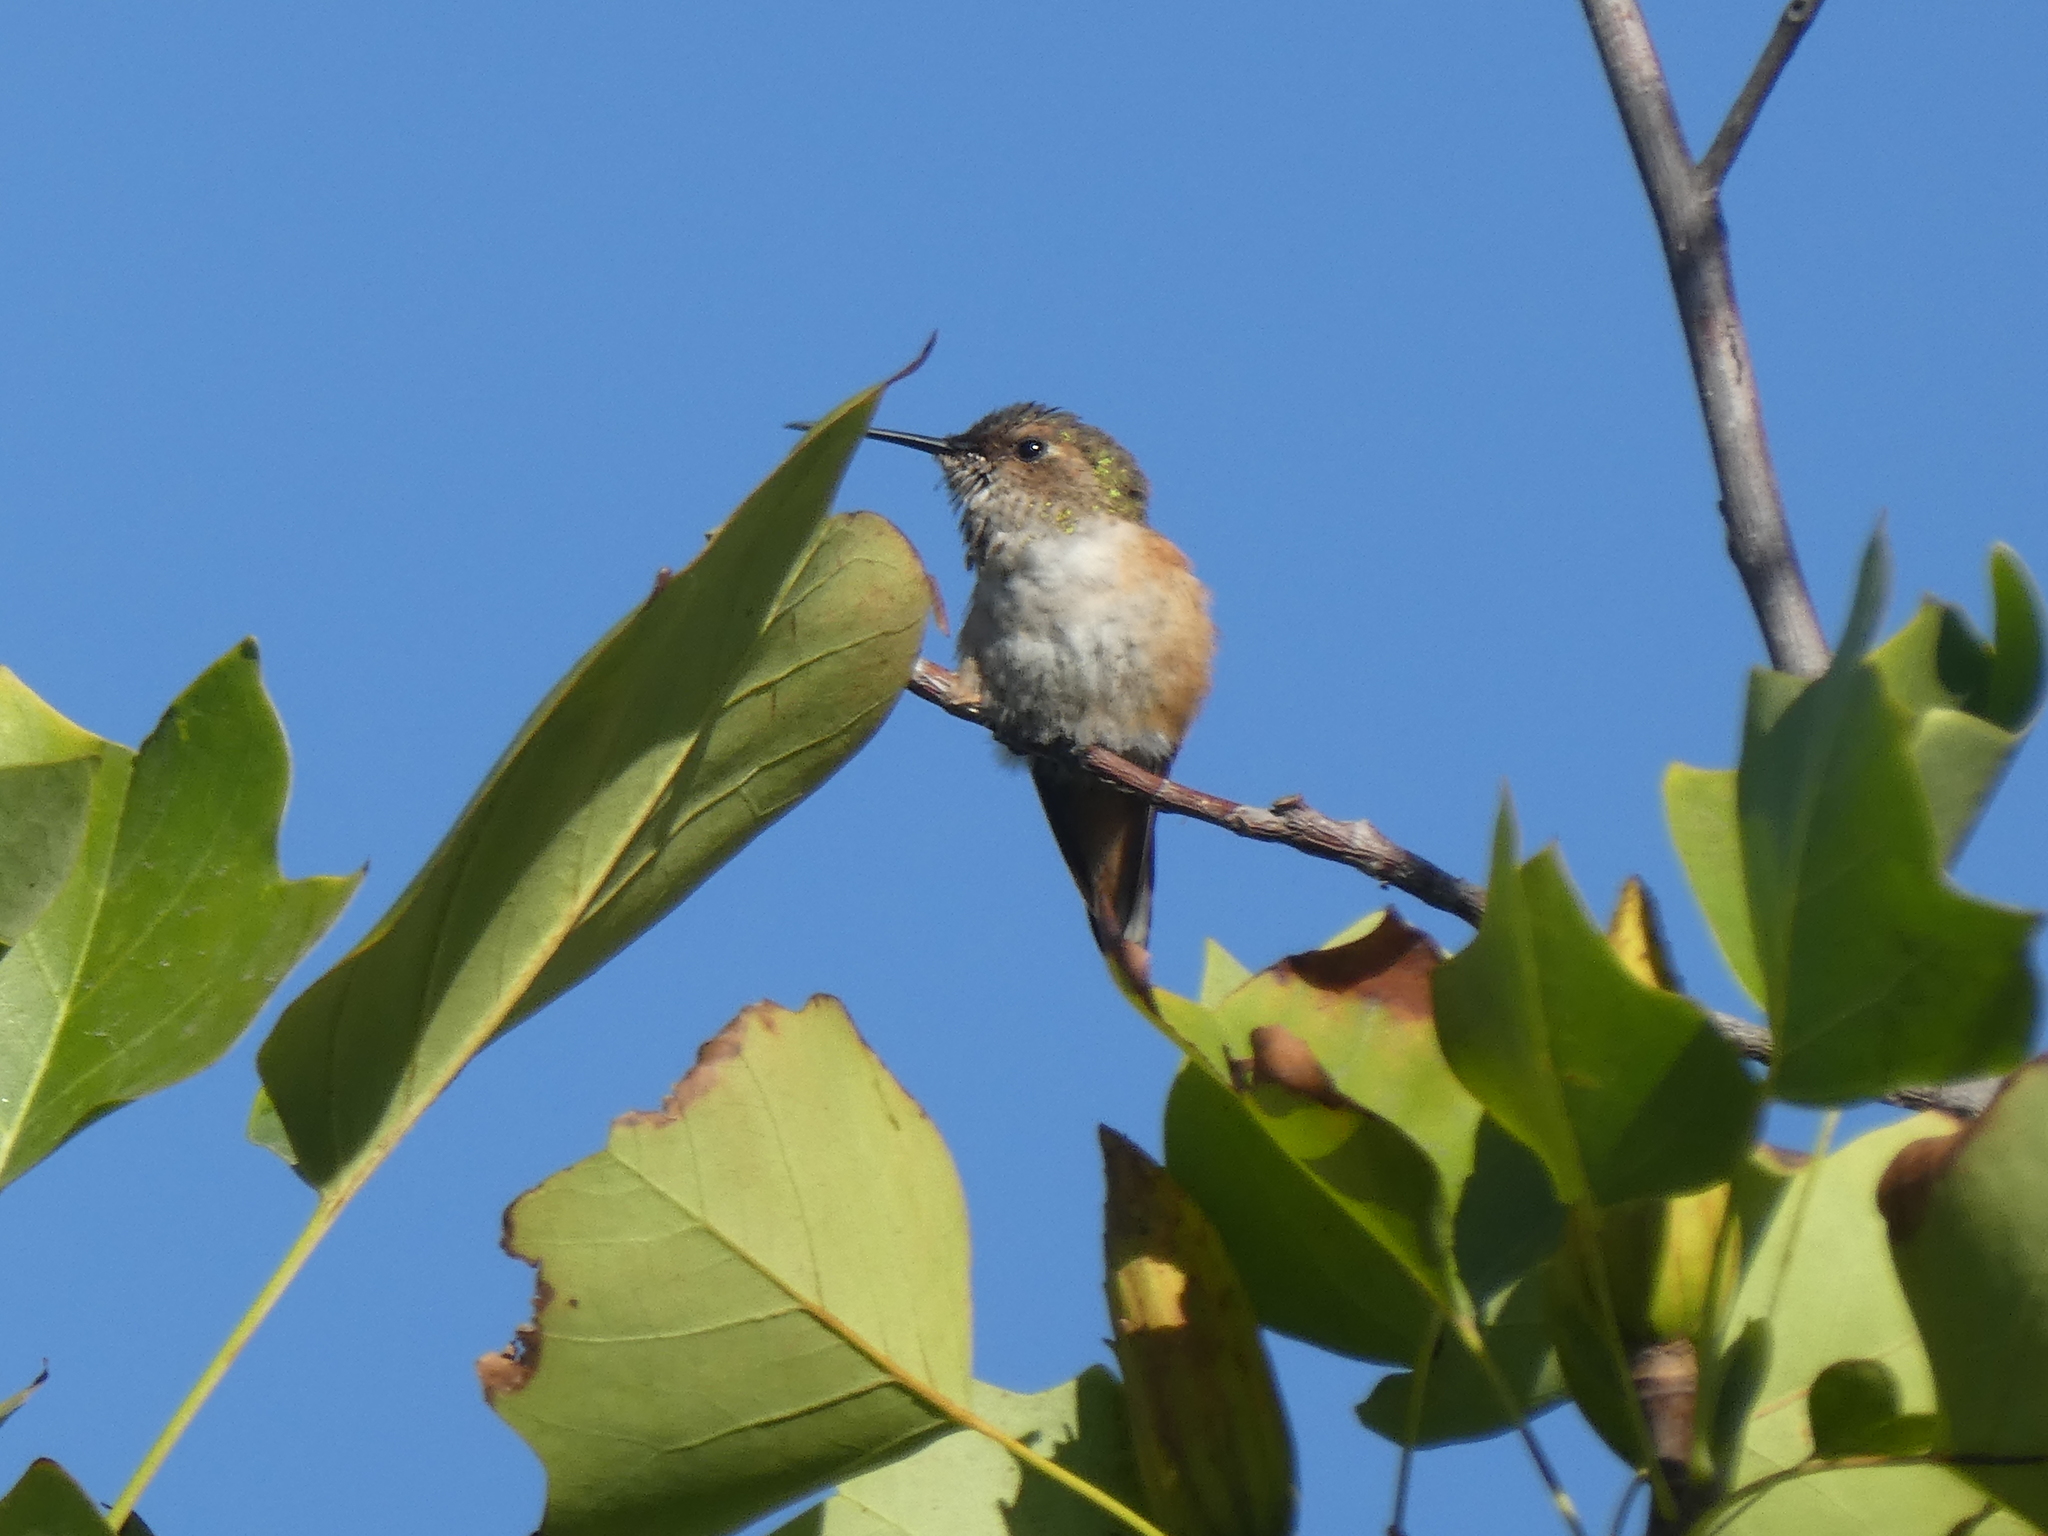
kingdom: Animalia
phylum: Chordata
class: Aves
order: Apodiformes
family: Trochilidae
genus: Selasphorus
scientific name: Selasphorus
